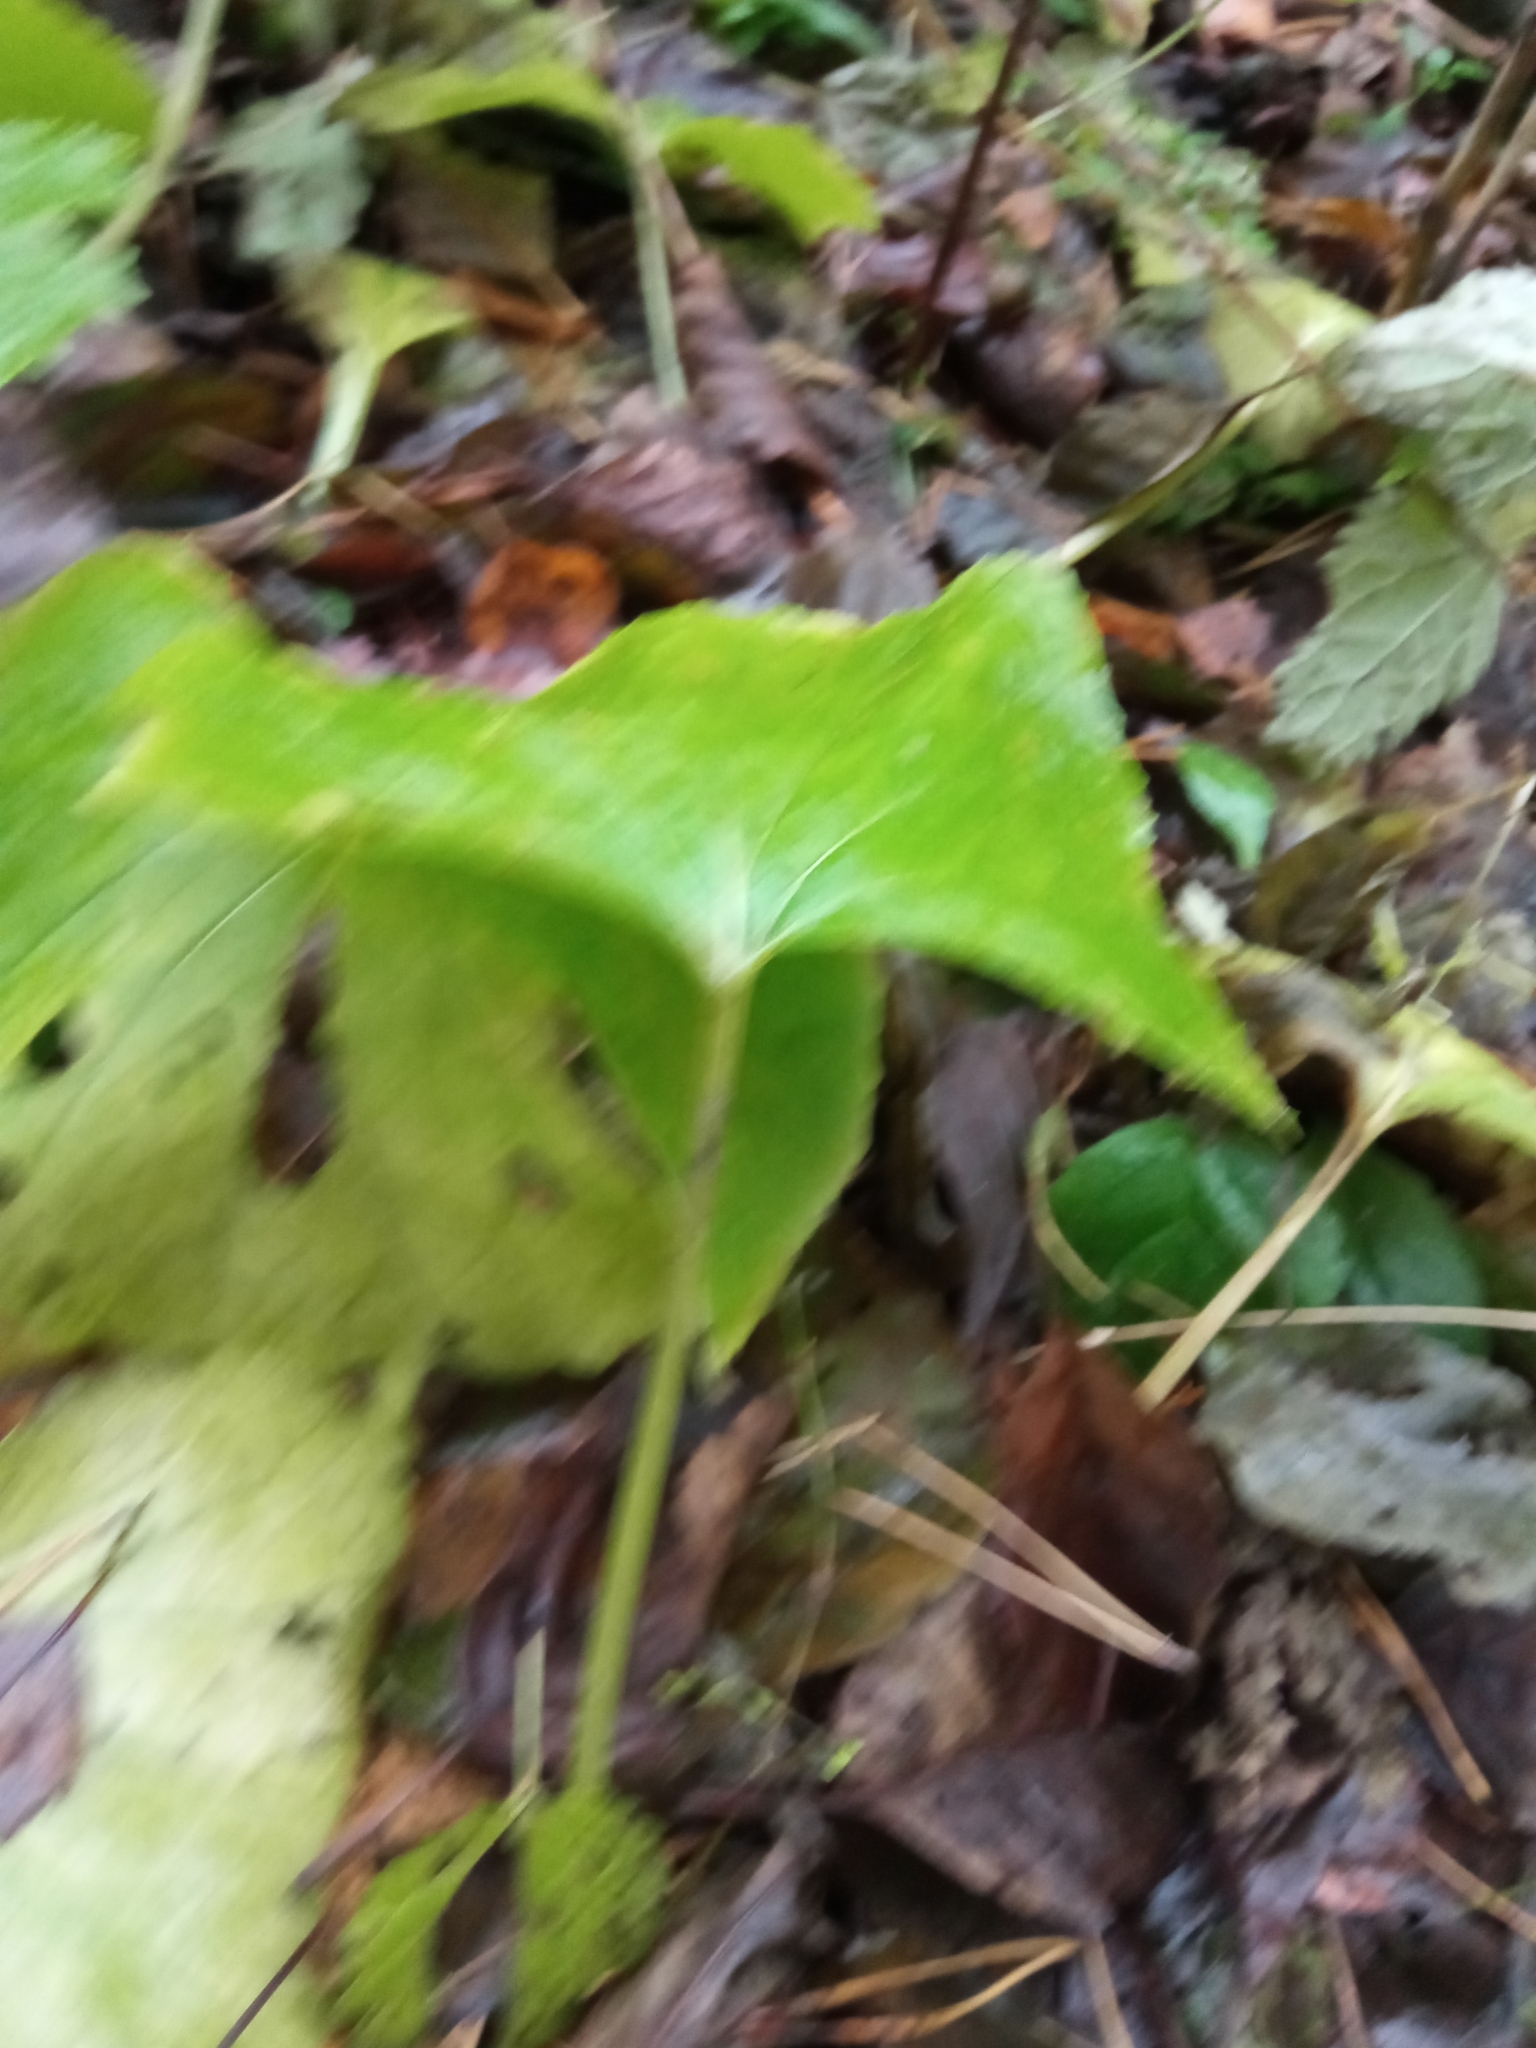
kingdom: Plantae
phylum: Tracheophyta
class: Magnoliopsida
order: Asterales
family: Asteraceae
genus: Tussilago
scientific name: Tussilago farfara
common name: Coltsfoot
